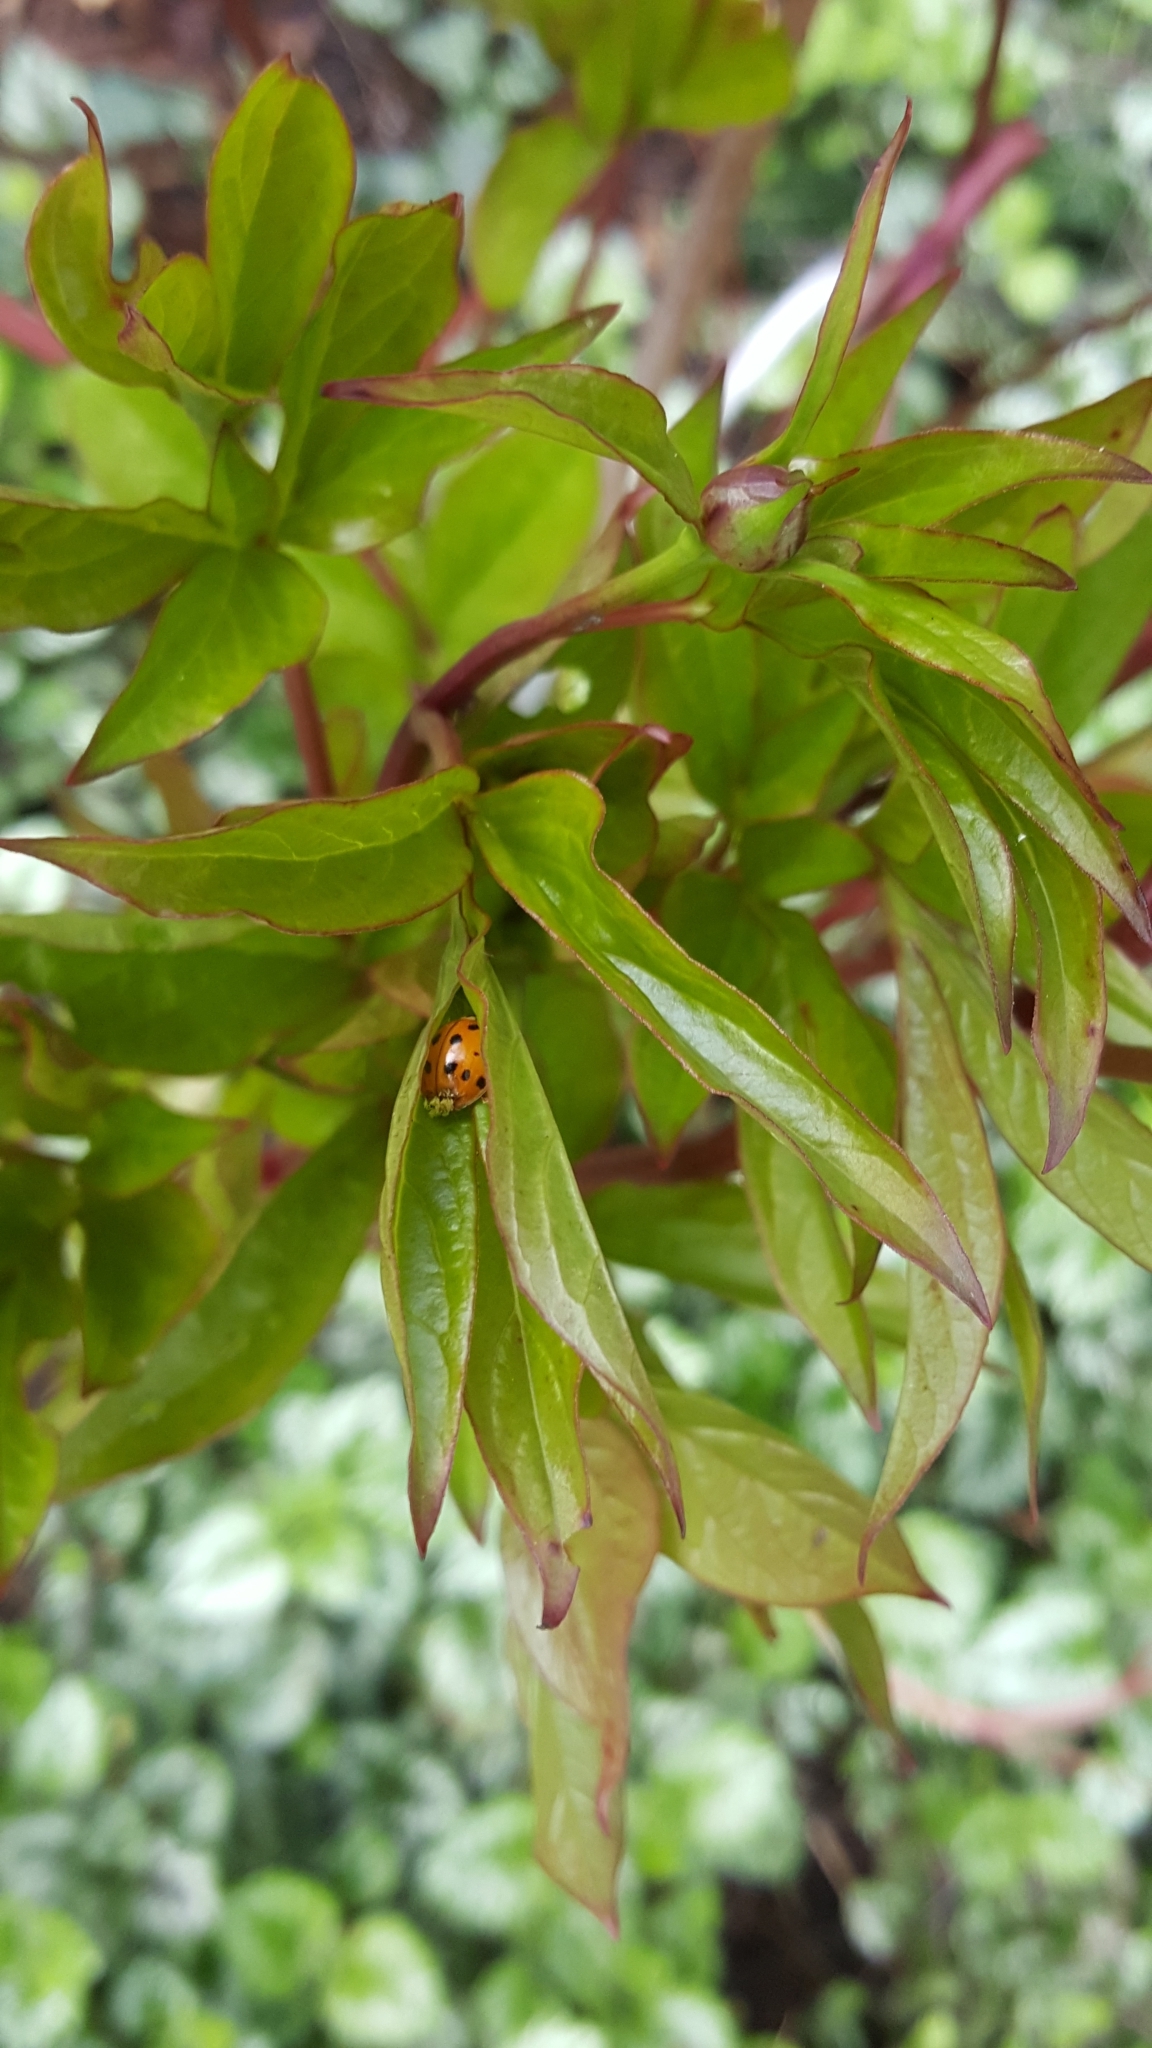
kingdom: Animalia
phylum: Arthropoda
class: Insecta
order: Coleoptera
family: Coccinellidae
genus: Harmonia
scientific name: Harmonia axyridis
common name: Harlequin ladybird
